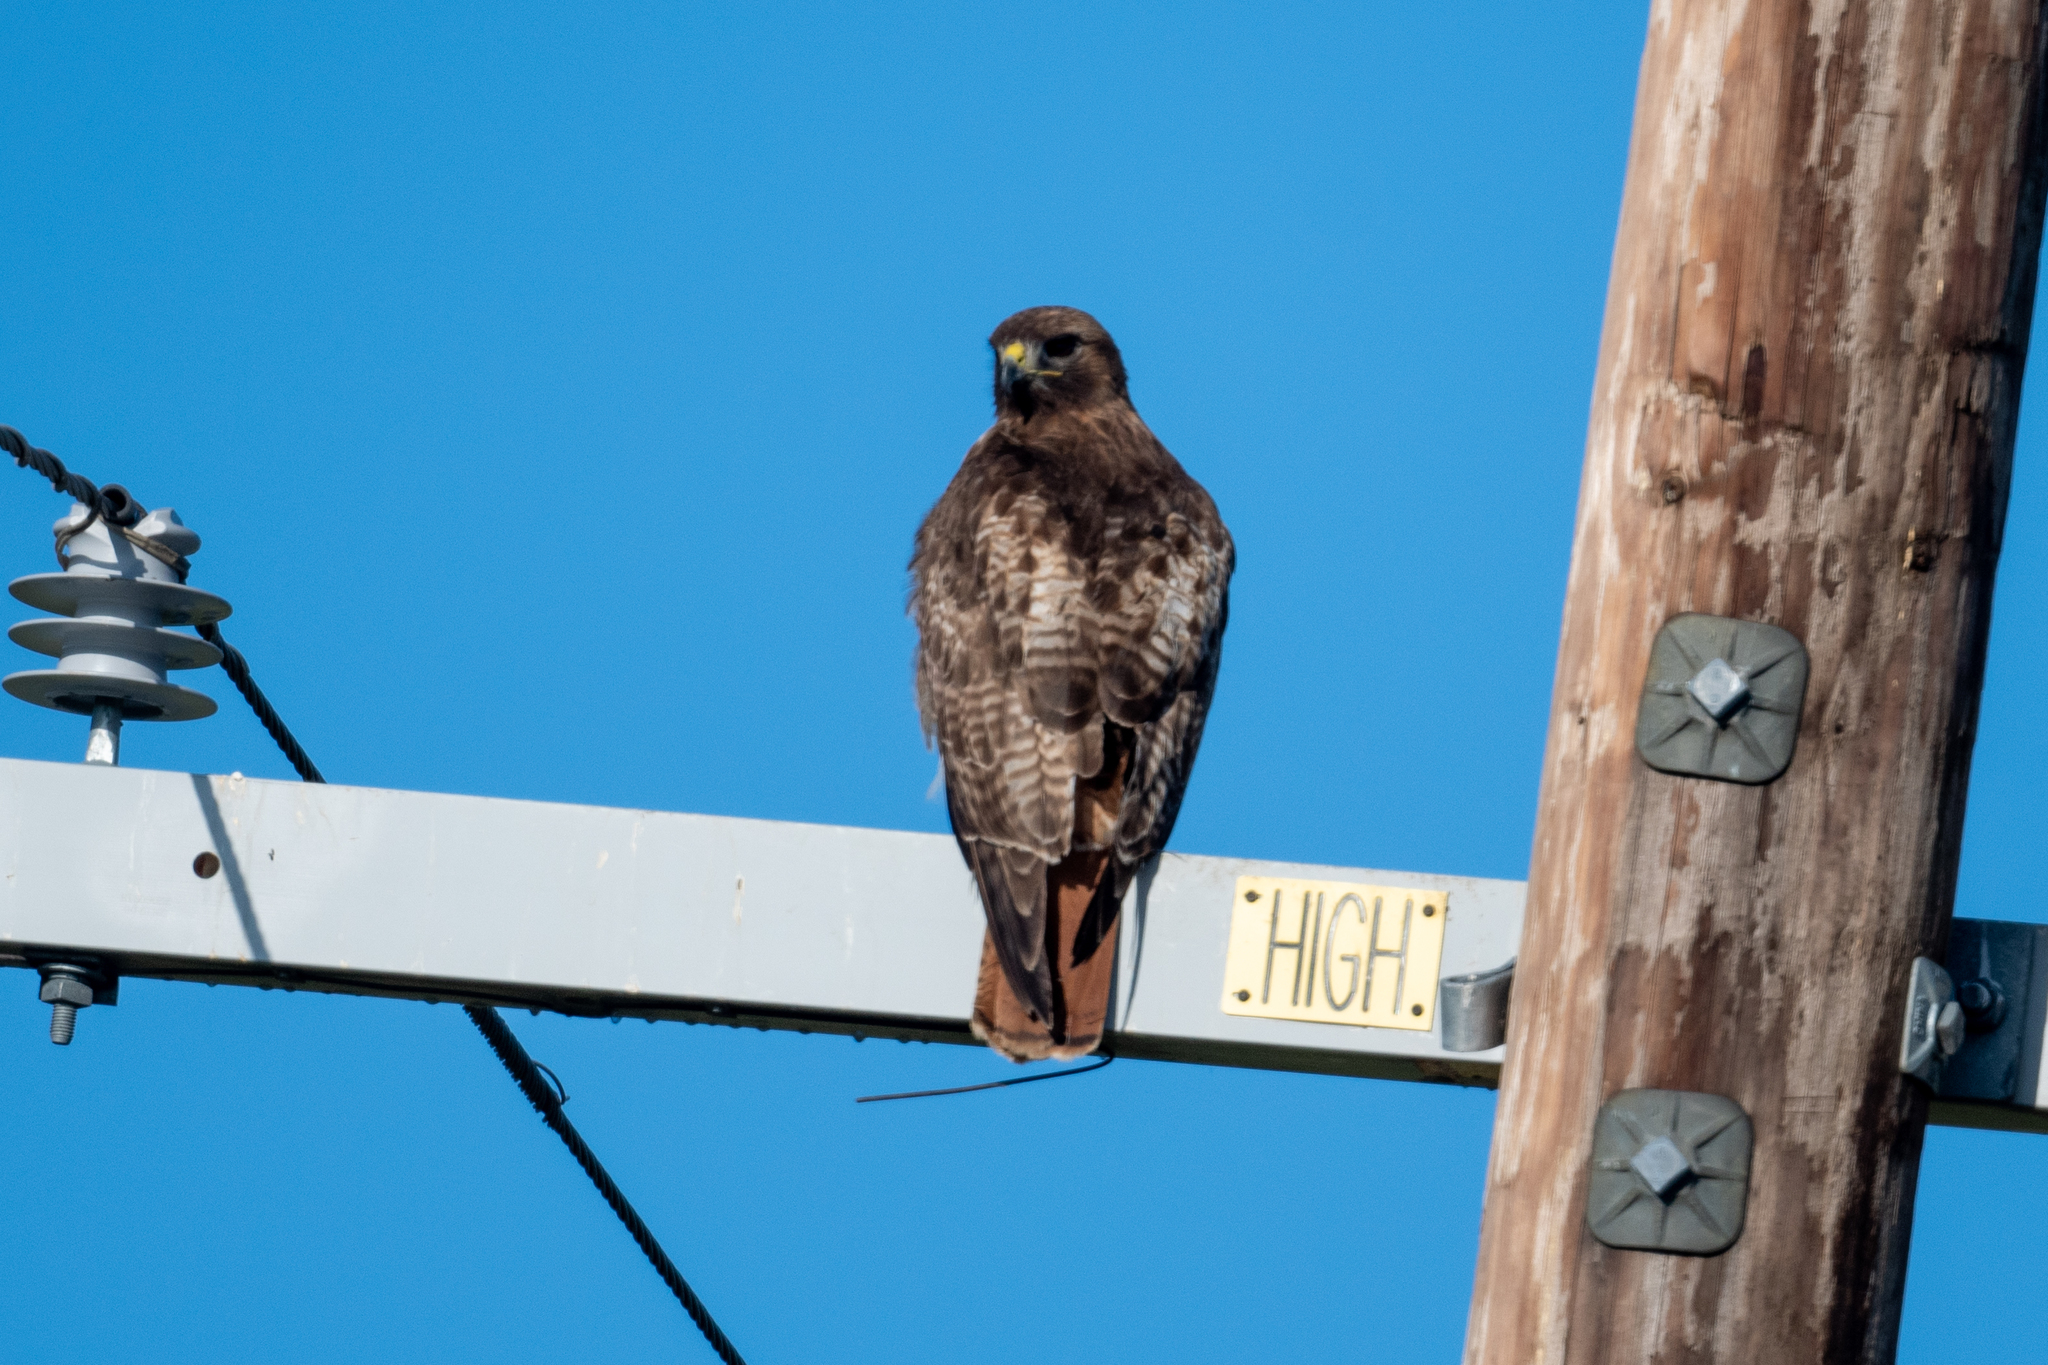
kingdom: Animalia
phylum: Chordata
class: Aves
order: Accipitriformes
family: Accipitridae
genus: Buteo
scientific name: Buteo jamaicensis
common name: Red-tailed hawk
